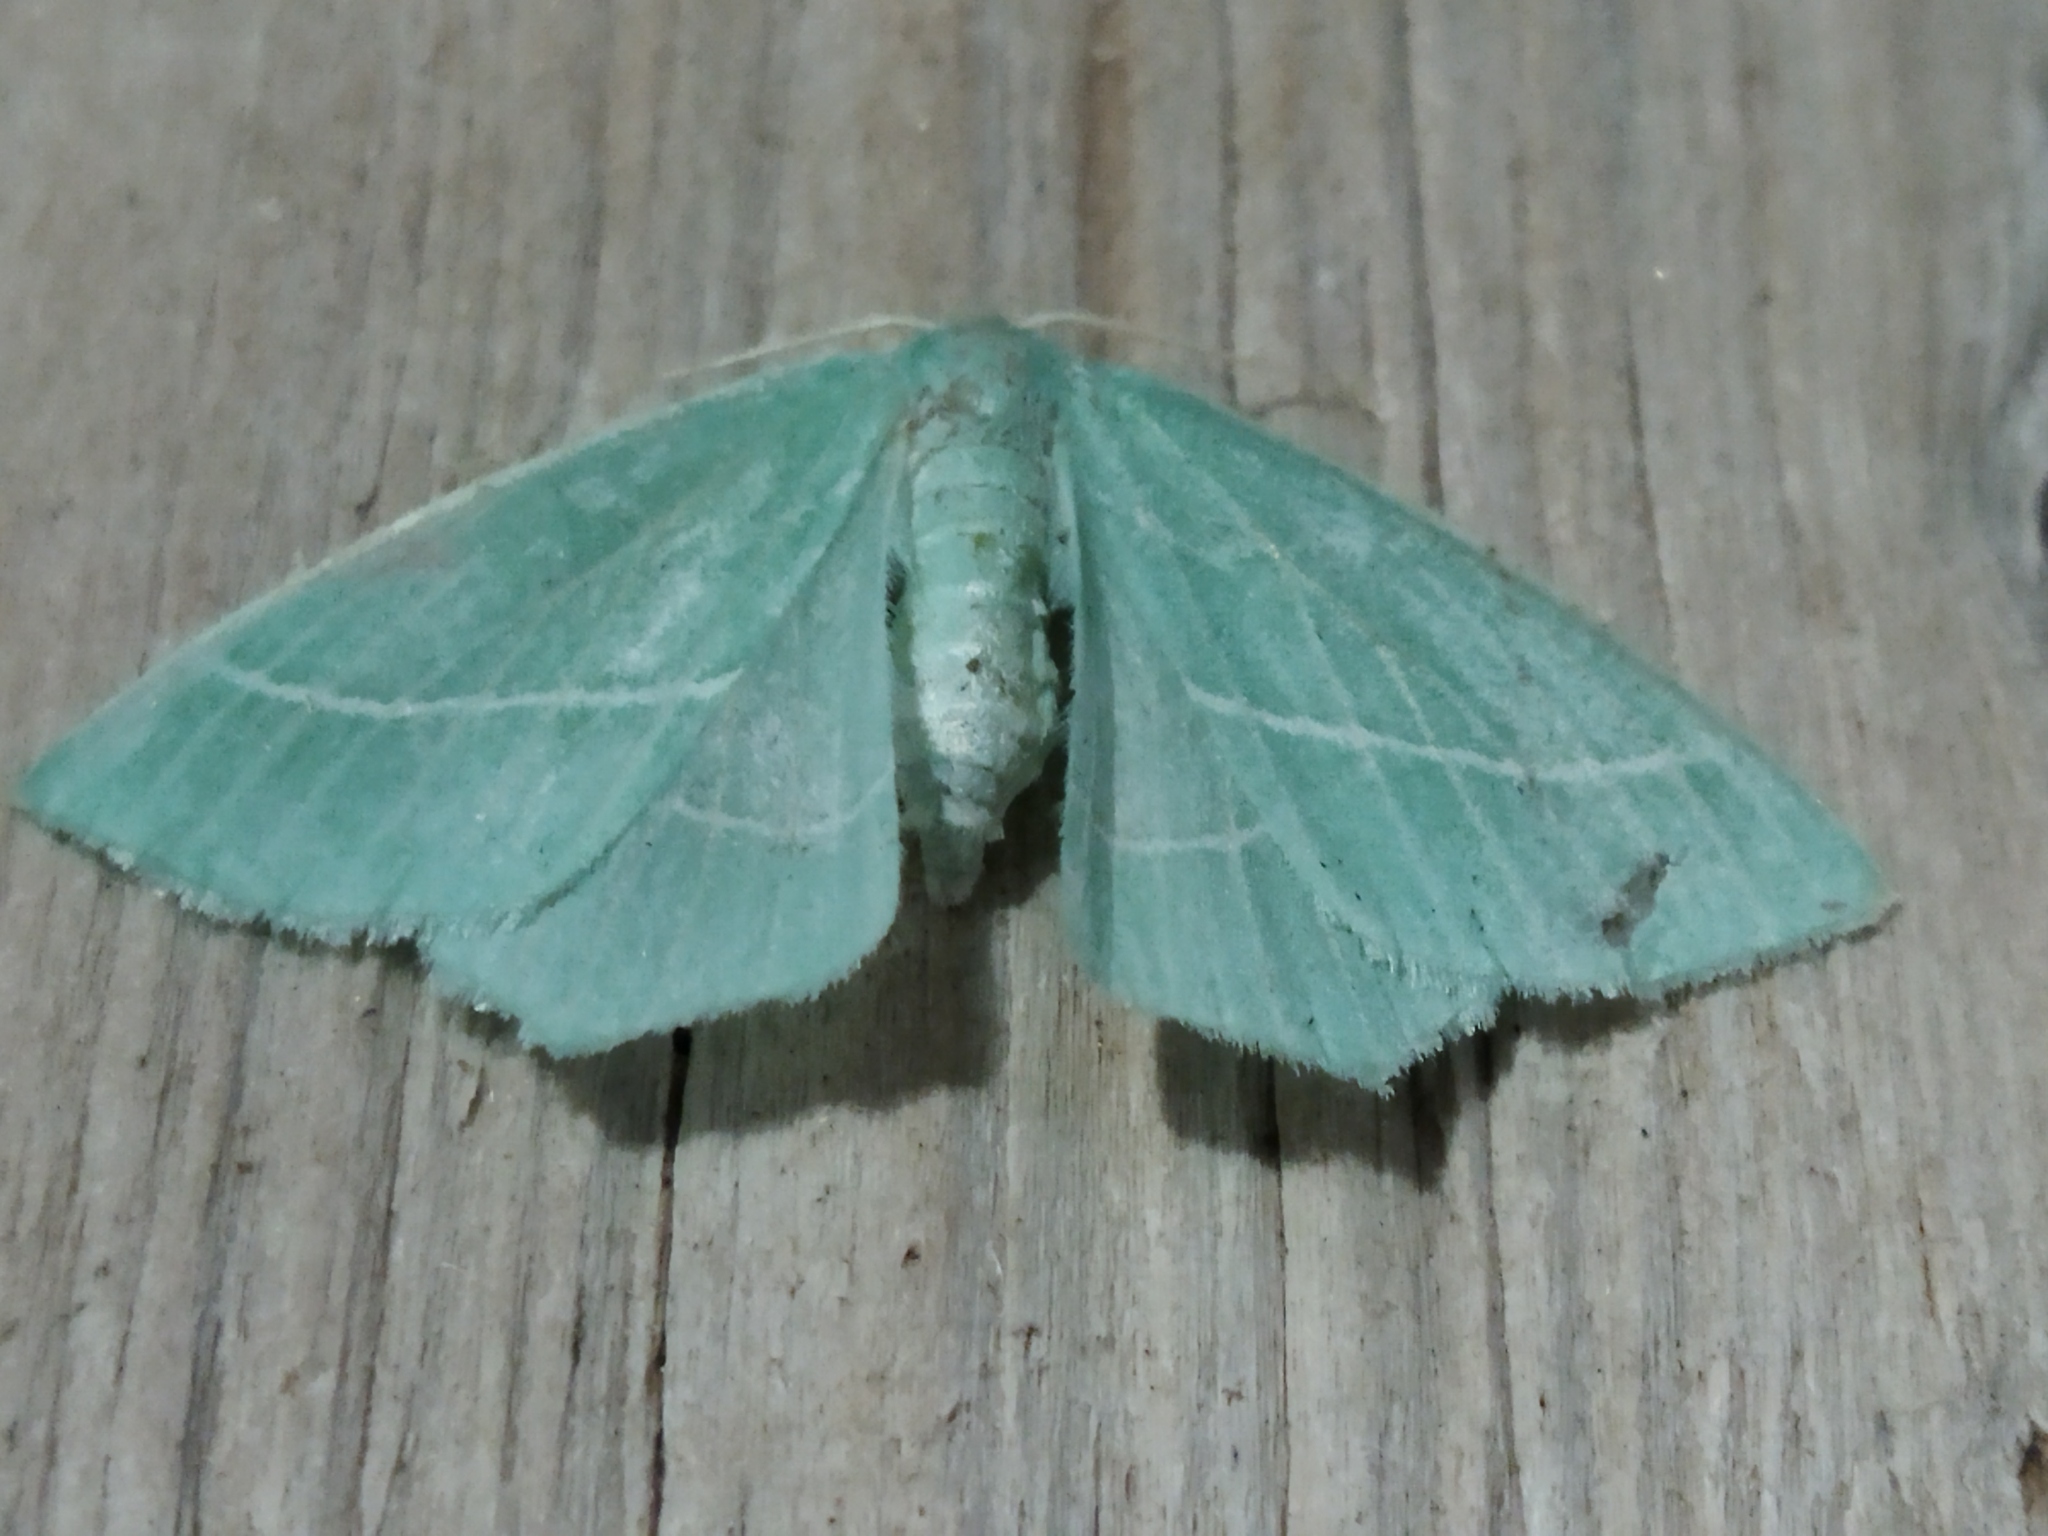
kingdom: Animalia
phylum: Arthropoda
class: Insecta
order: Lepidoptera
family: Geometridae
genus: Hemistola
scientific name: Hemistola chrysoprasaria
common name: Small emerald
